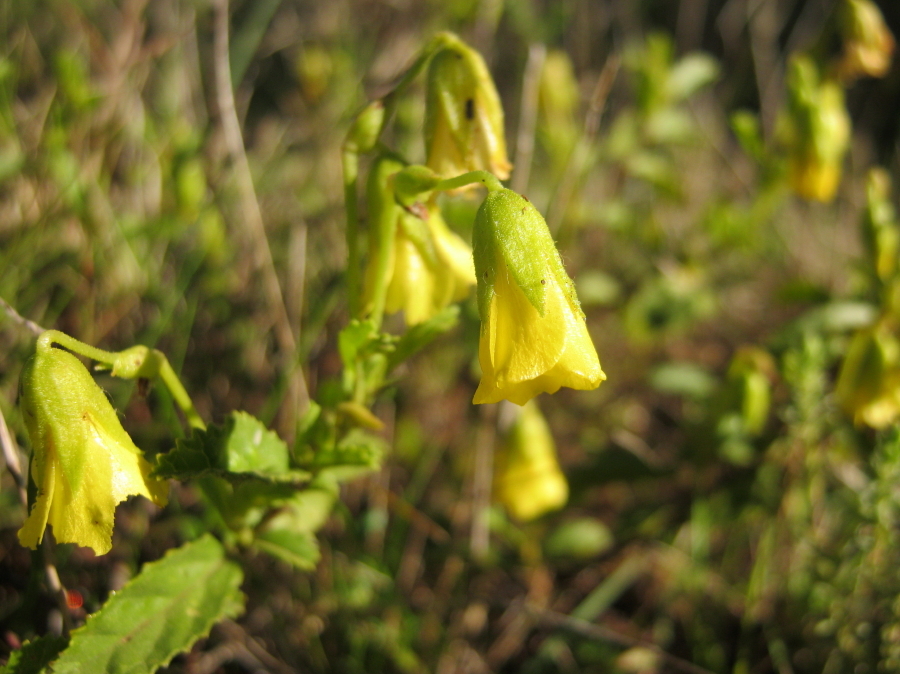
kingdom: Plantae
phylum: Tracheophyta
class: Magnoliopsida
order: Malvales
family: Malvaceae
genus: Hermannia
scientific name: Hermannia saccifera
